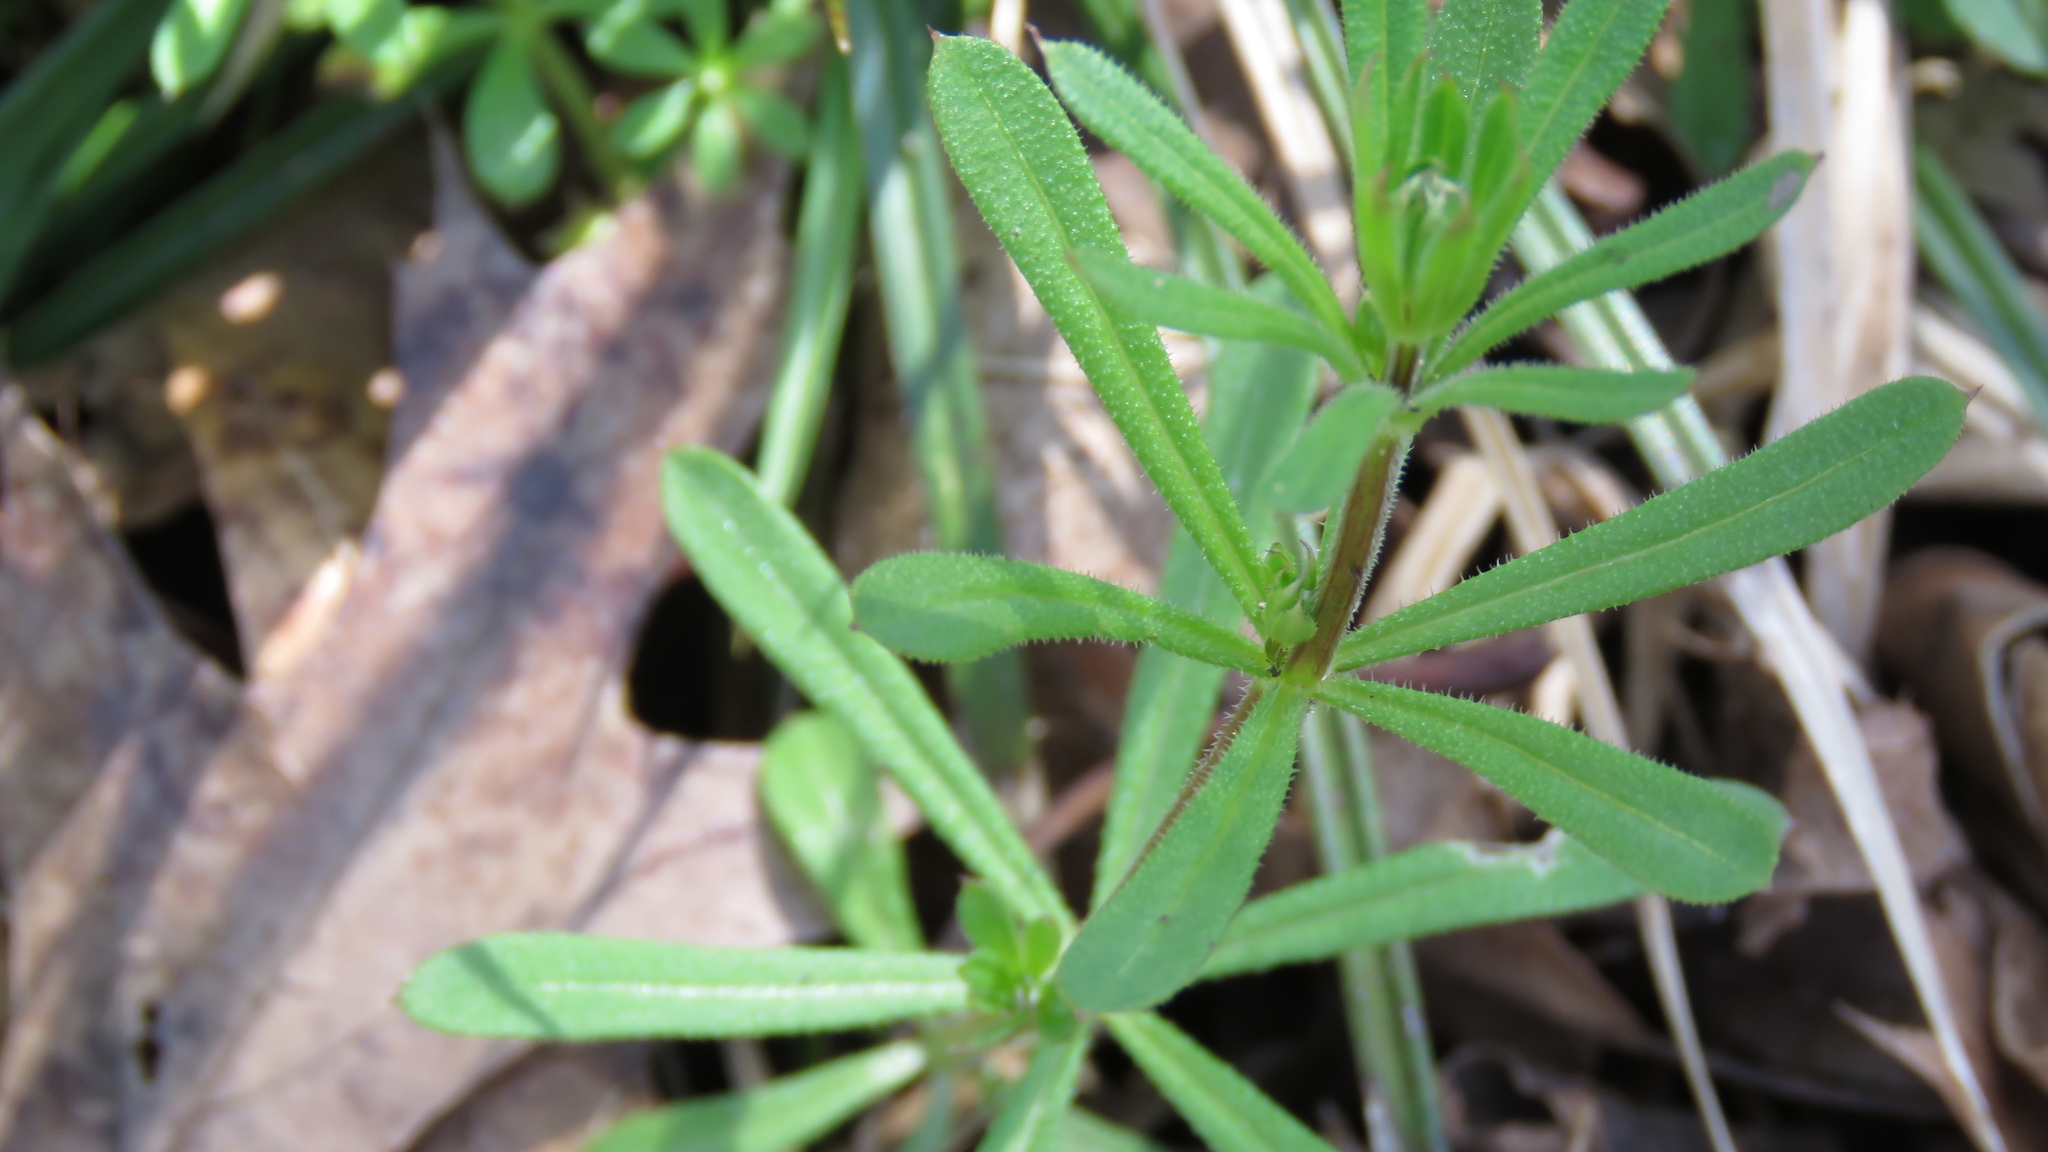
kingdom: Plantae
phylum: Tracheophyta
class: Magnoliopsida
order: Gentianales
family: Rubiaceae
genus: Galium
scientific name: Galium aparine
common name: Cleavers
